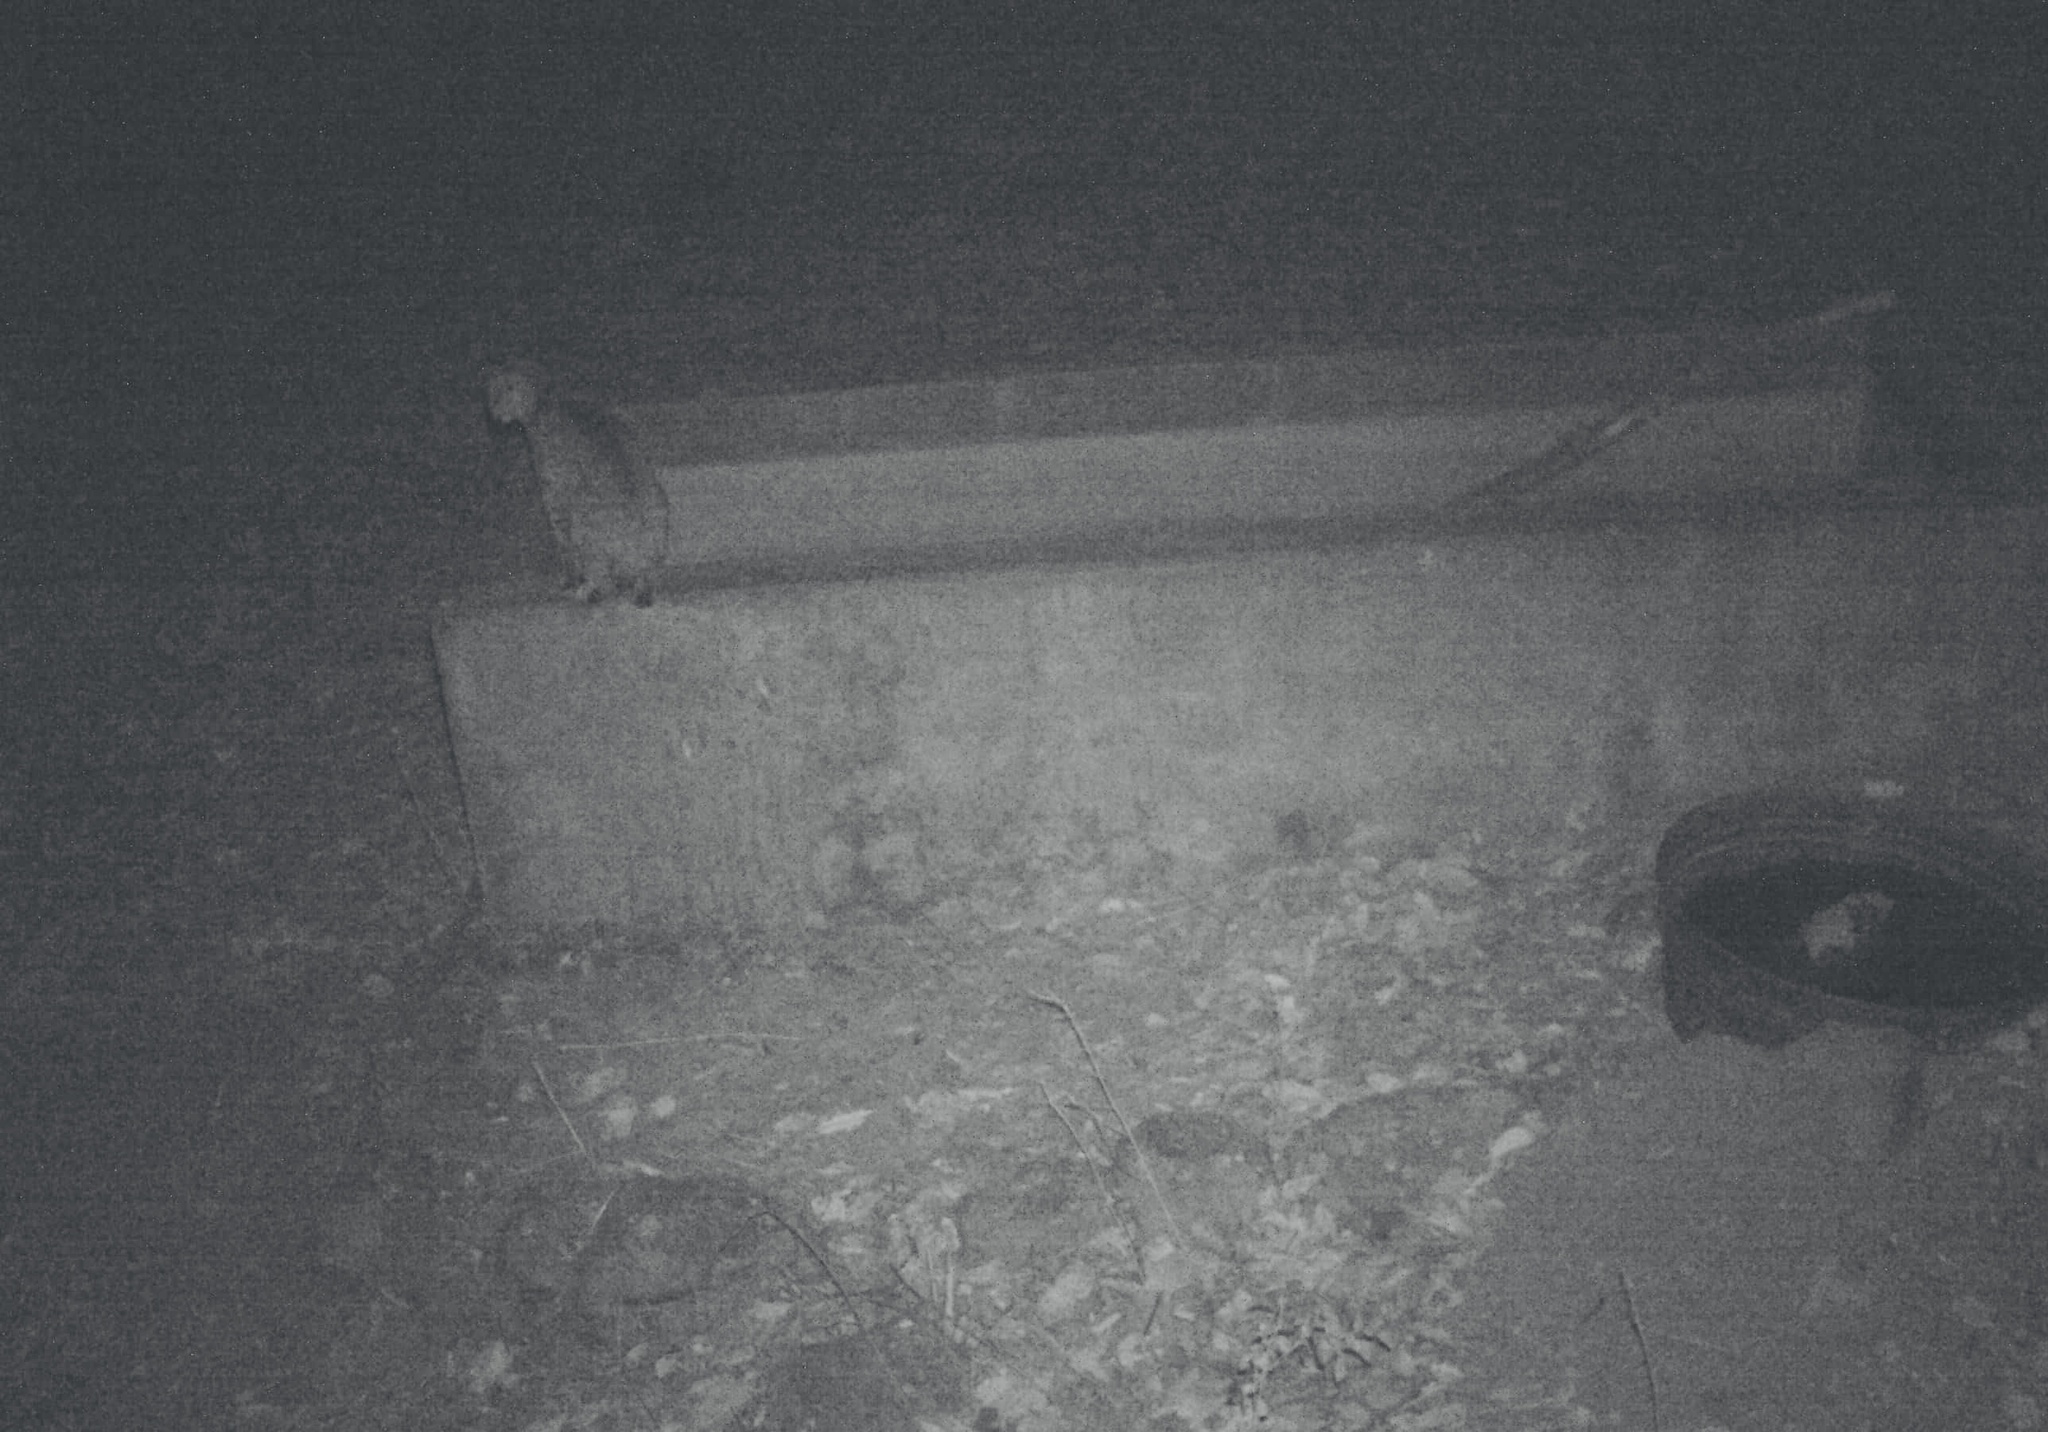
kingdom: Animalia
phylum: Chordata
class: Mammalia
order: Carnivora
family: Felidae
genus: Lynx
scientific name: Lynx rufus
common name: Bobcat
